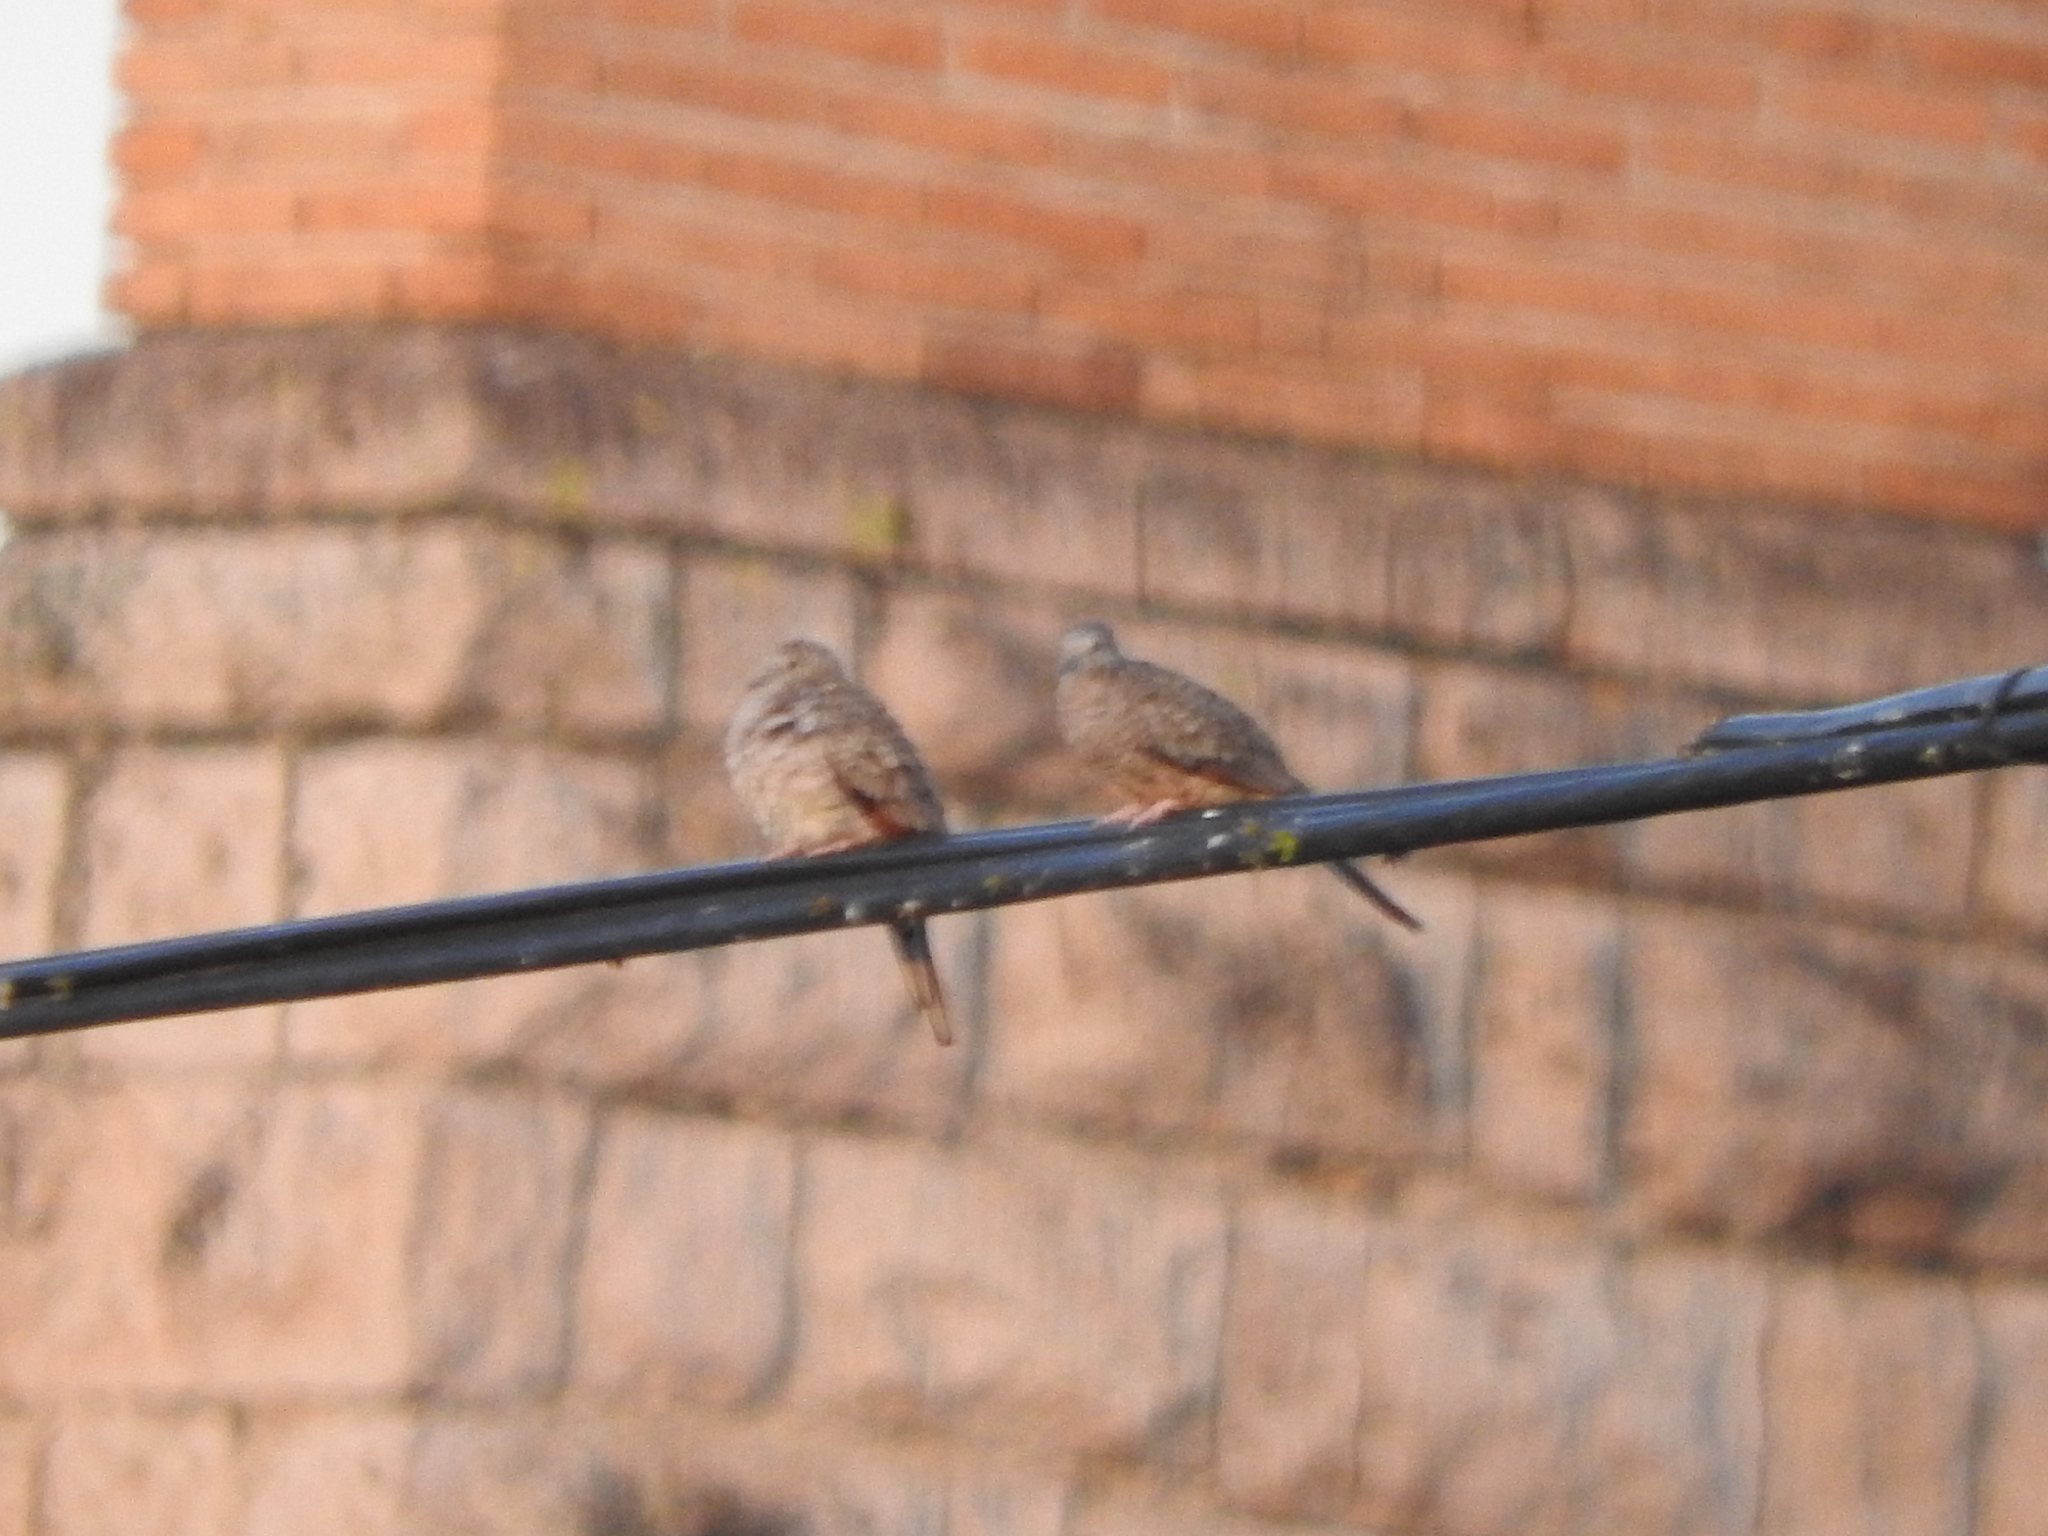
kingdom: Animalia
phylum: Chordata
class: Aves
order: Columbiformes
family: Columbidae
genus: Columbina
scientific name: Columbina inca
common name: Inca dove
